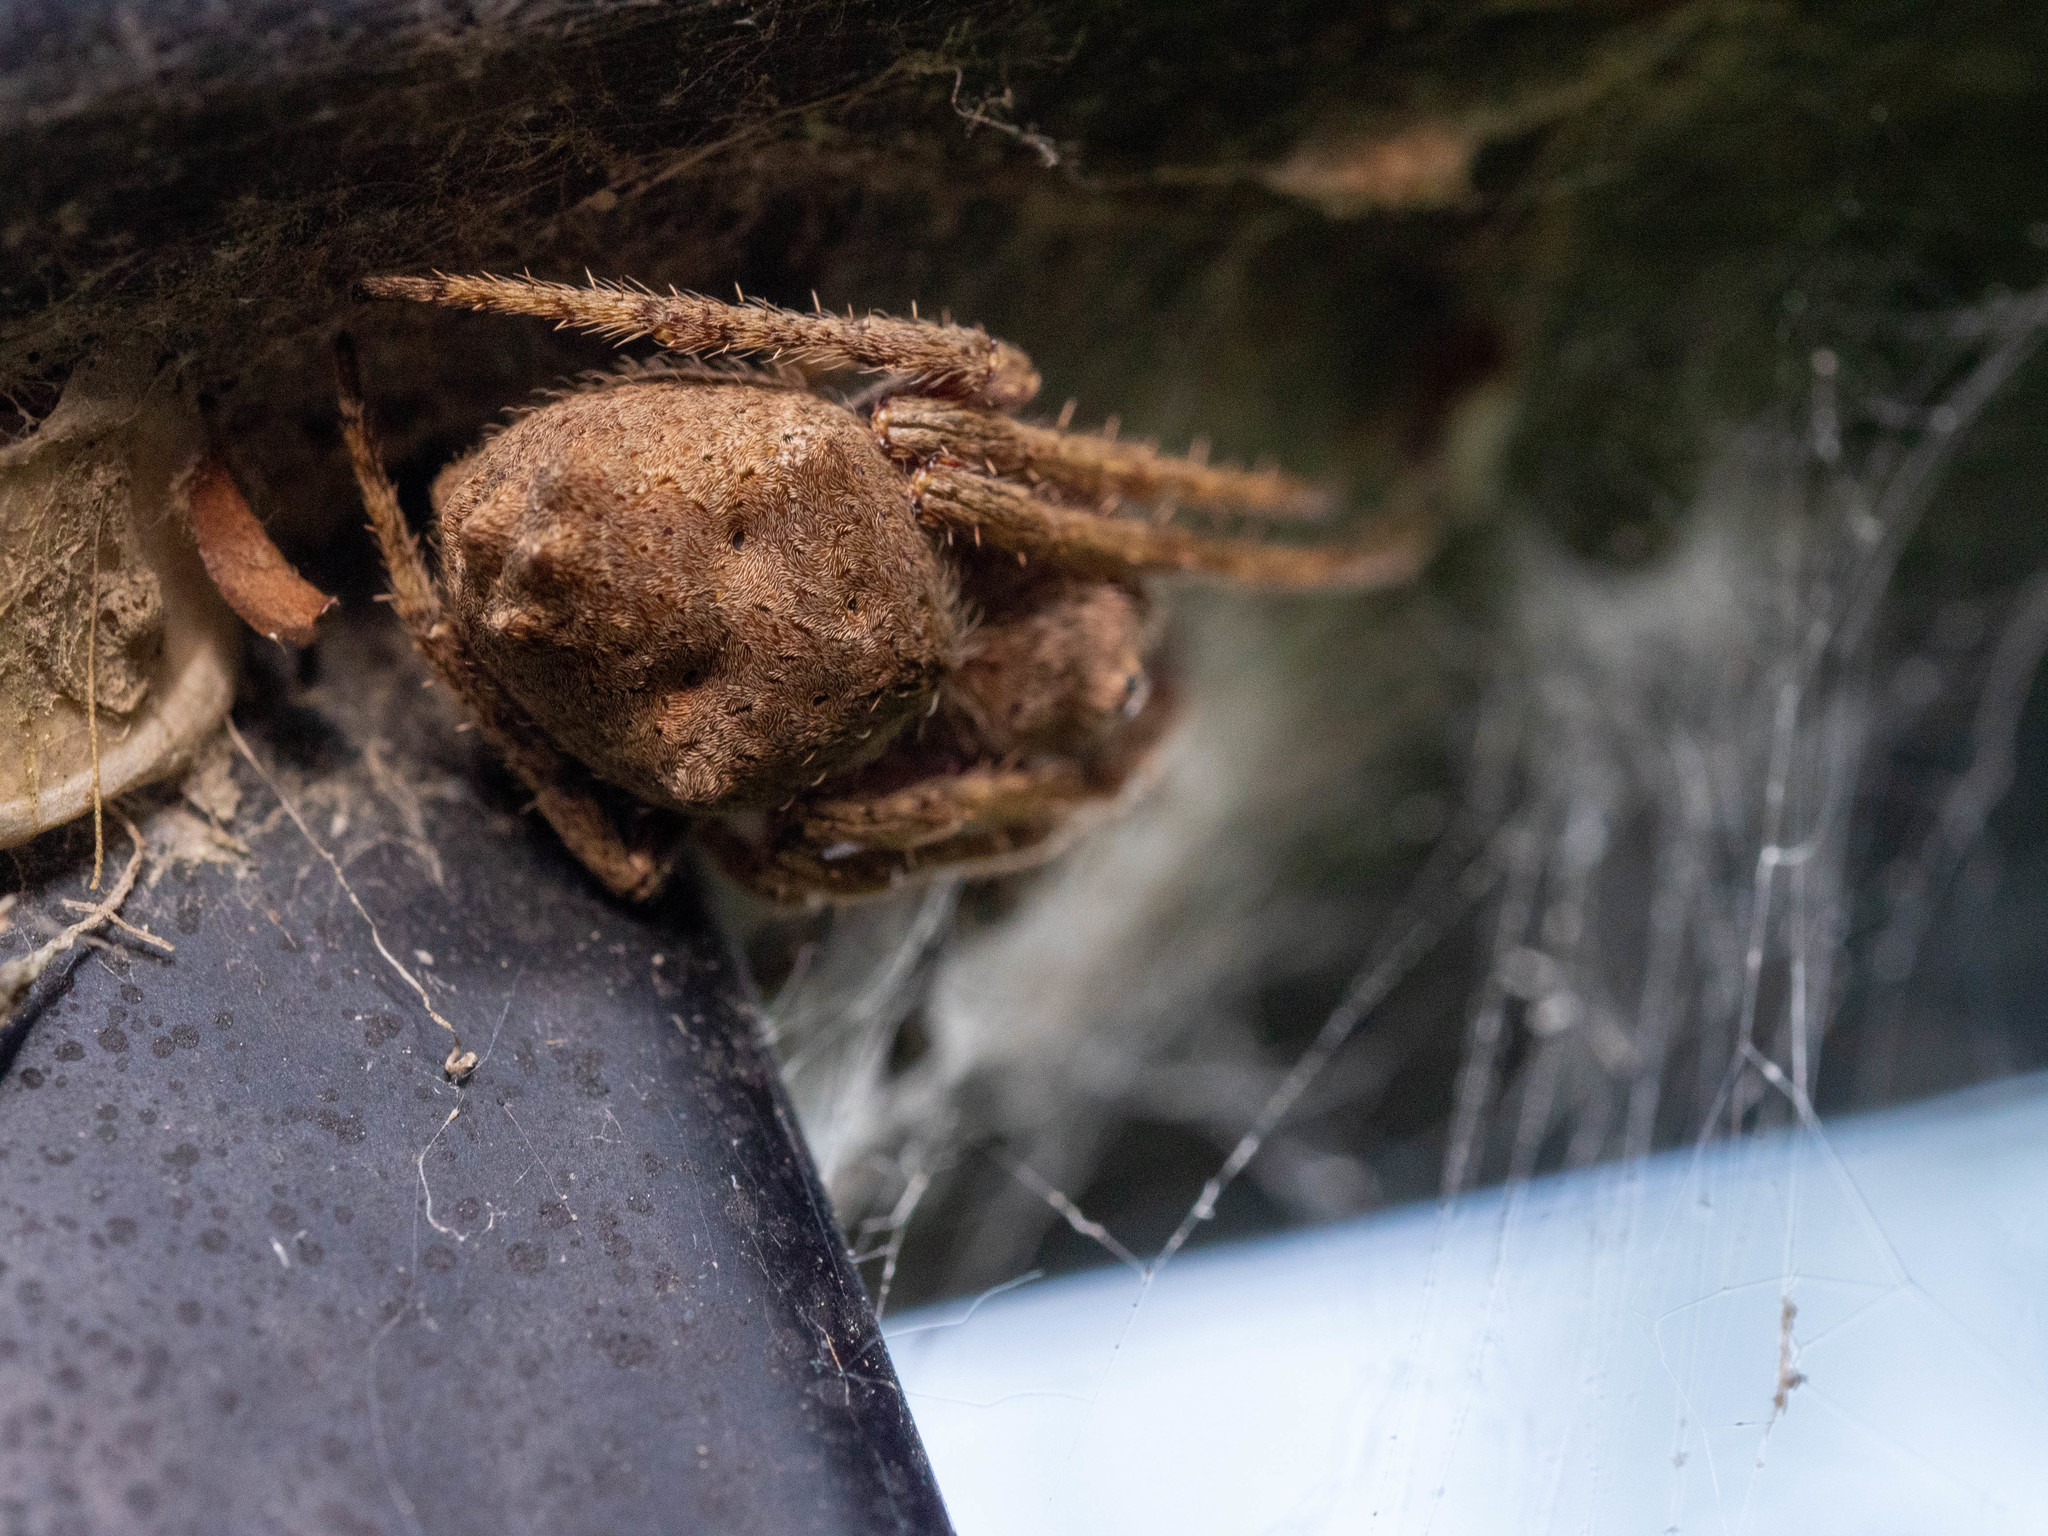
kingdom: Animalia
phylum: Arthropoda
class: Arachnida
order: Araneae
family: Araneidae
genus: Eriophora
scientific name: Eriophora pustulosa
